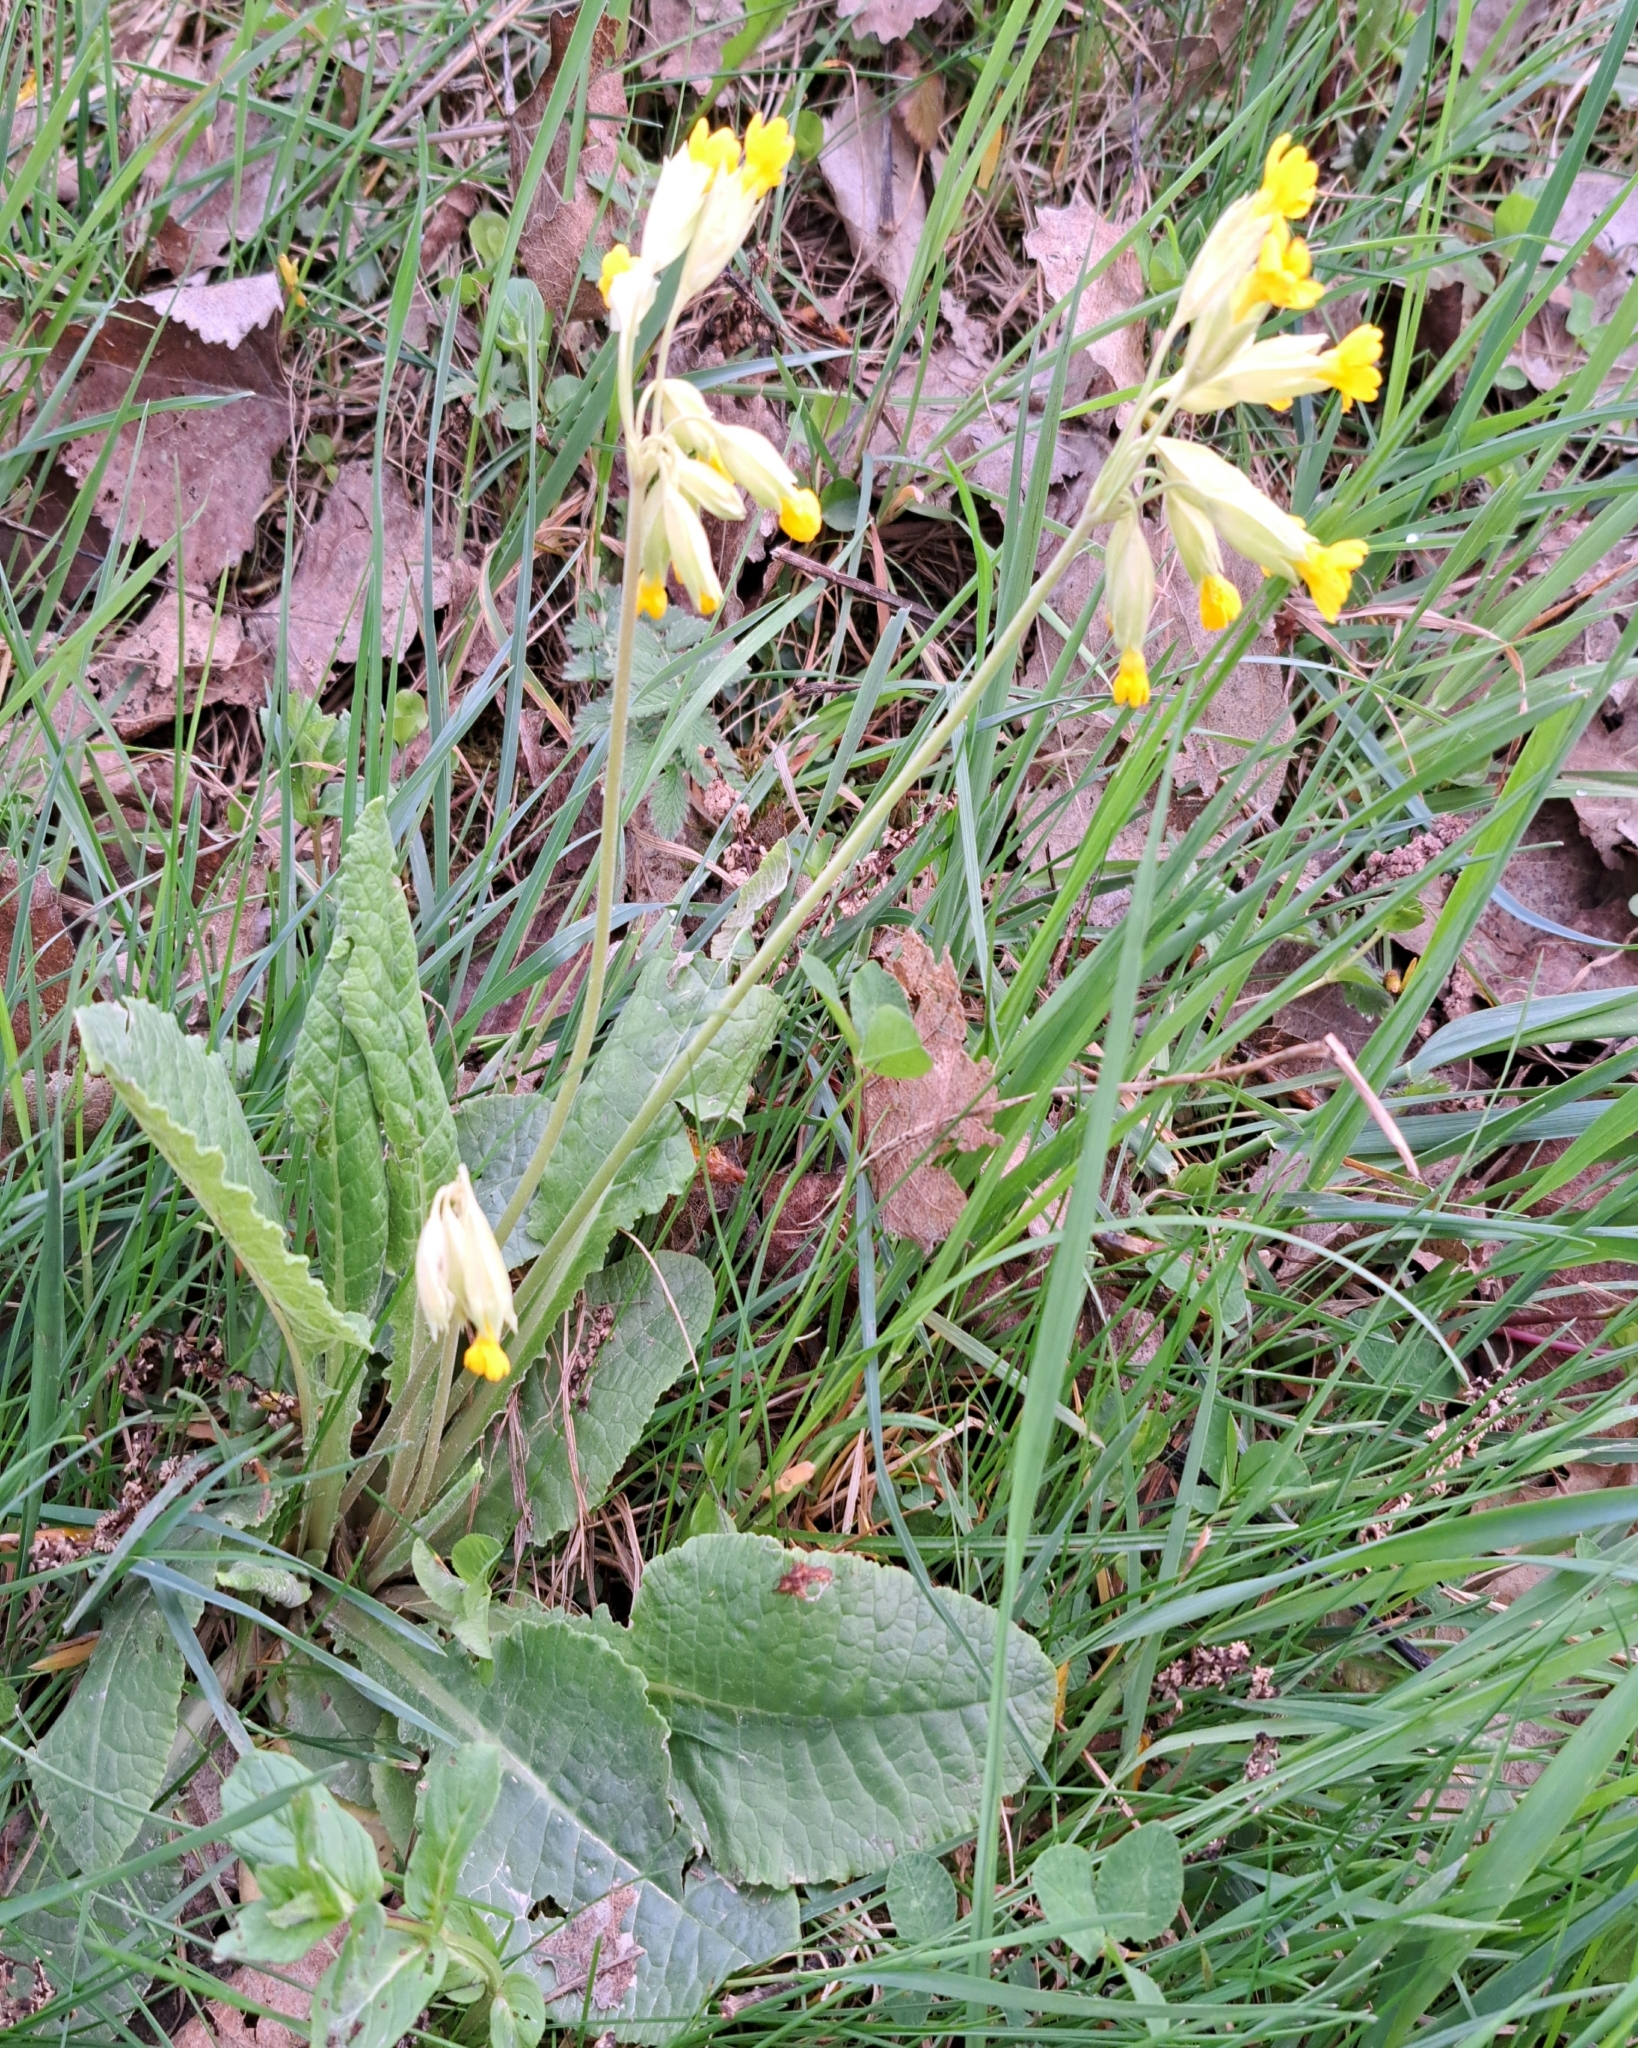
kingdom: Plantae
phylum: Tracheophyta
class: Magnoliopsida
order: Ericales
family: Primulaceae
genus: Primula
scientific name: Primula veris
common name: Cowslip
